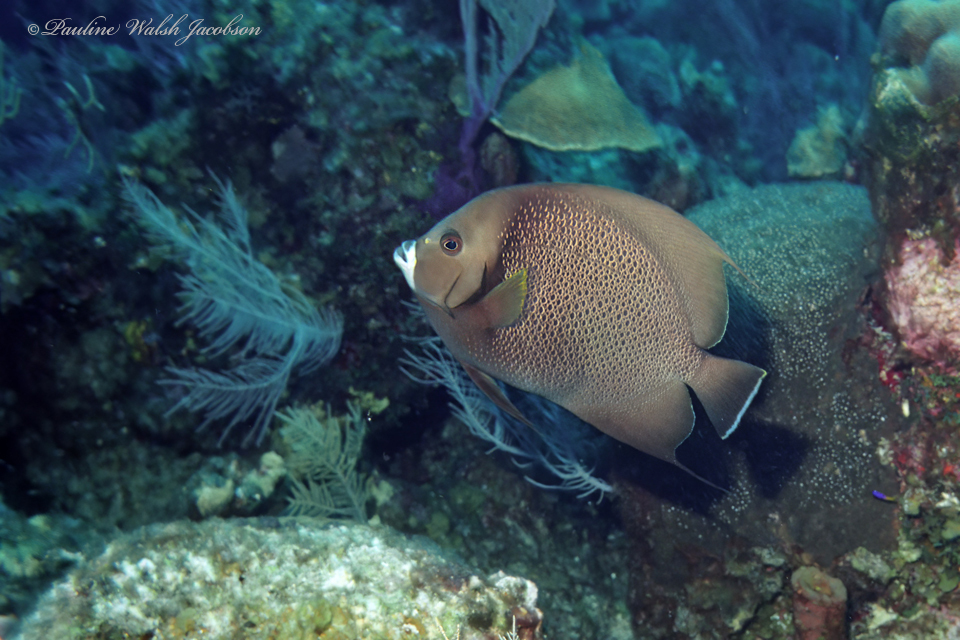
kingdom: Animalia
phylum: Chordata
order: Perciformes
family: Pomacanthidae
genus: Pomacanthus
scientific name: Pomacanthus arcuatus
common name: Gray angelfish
